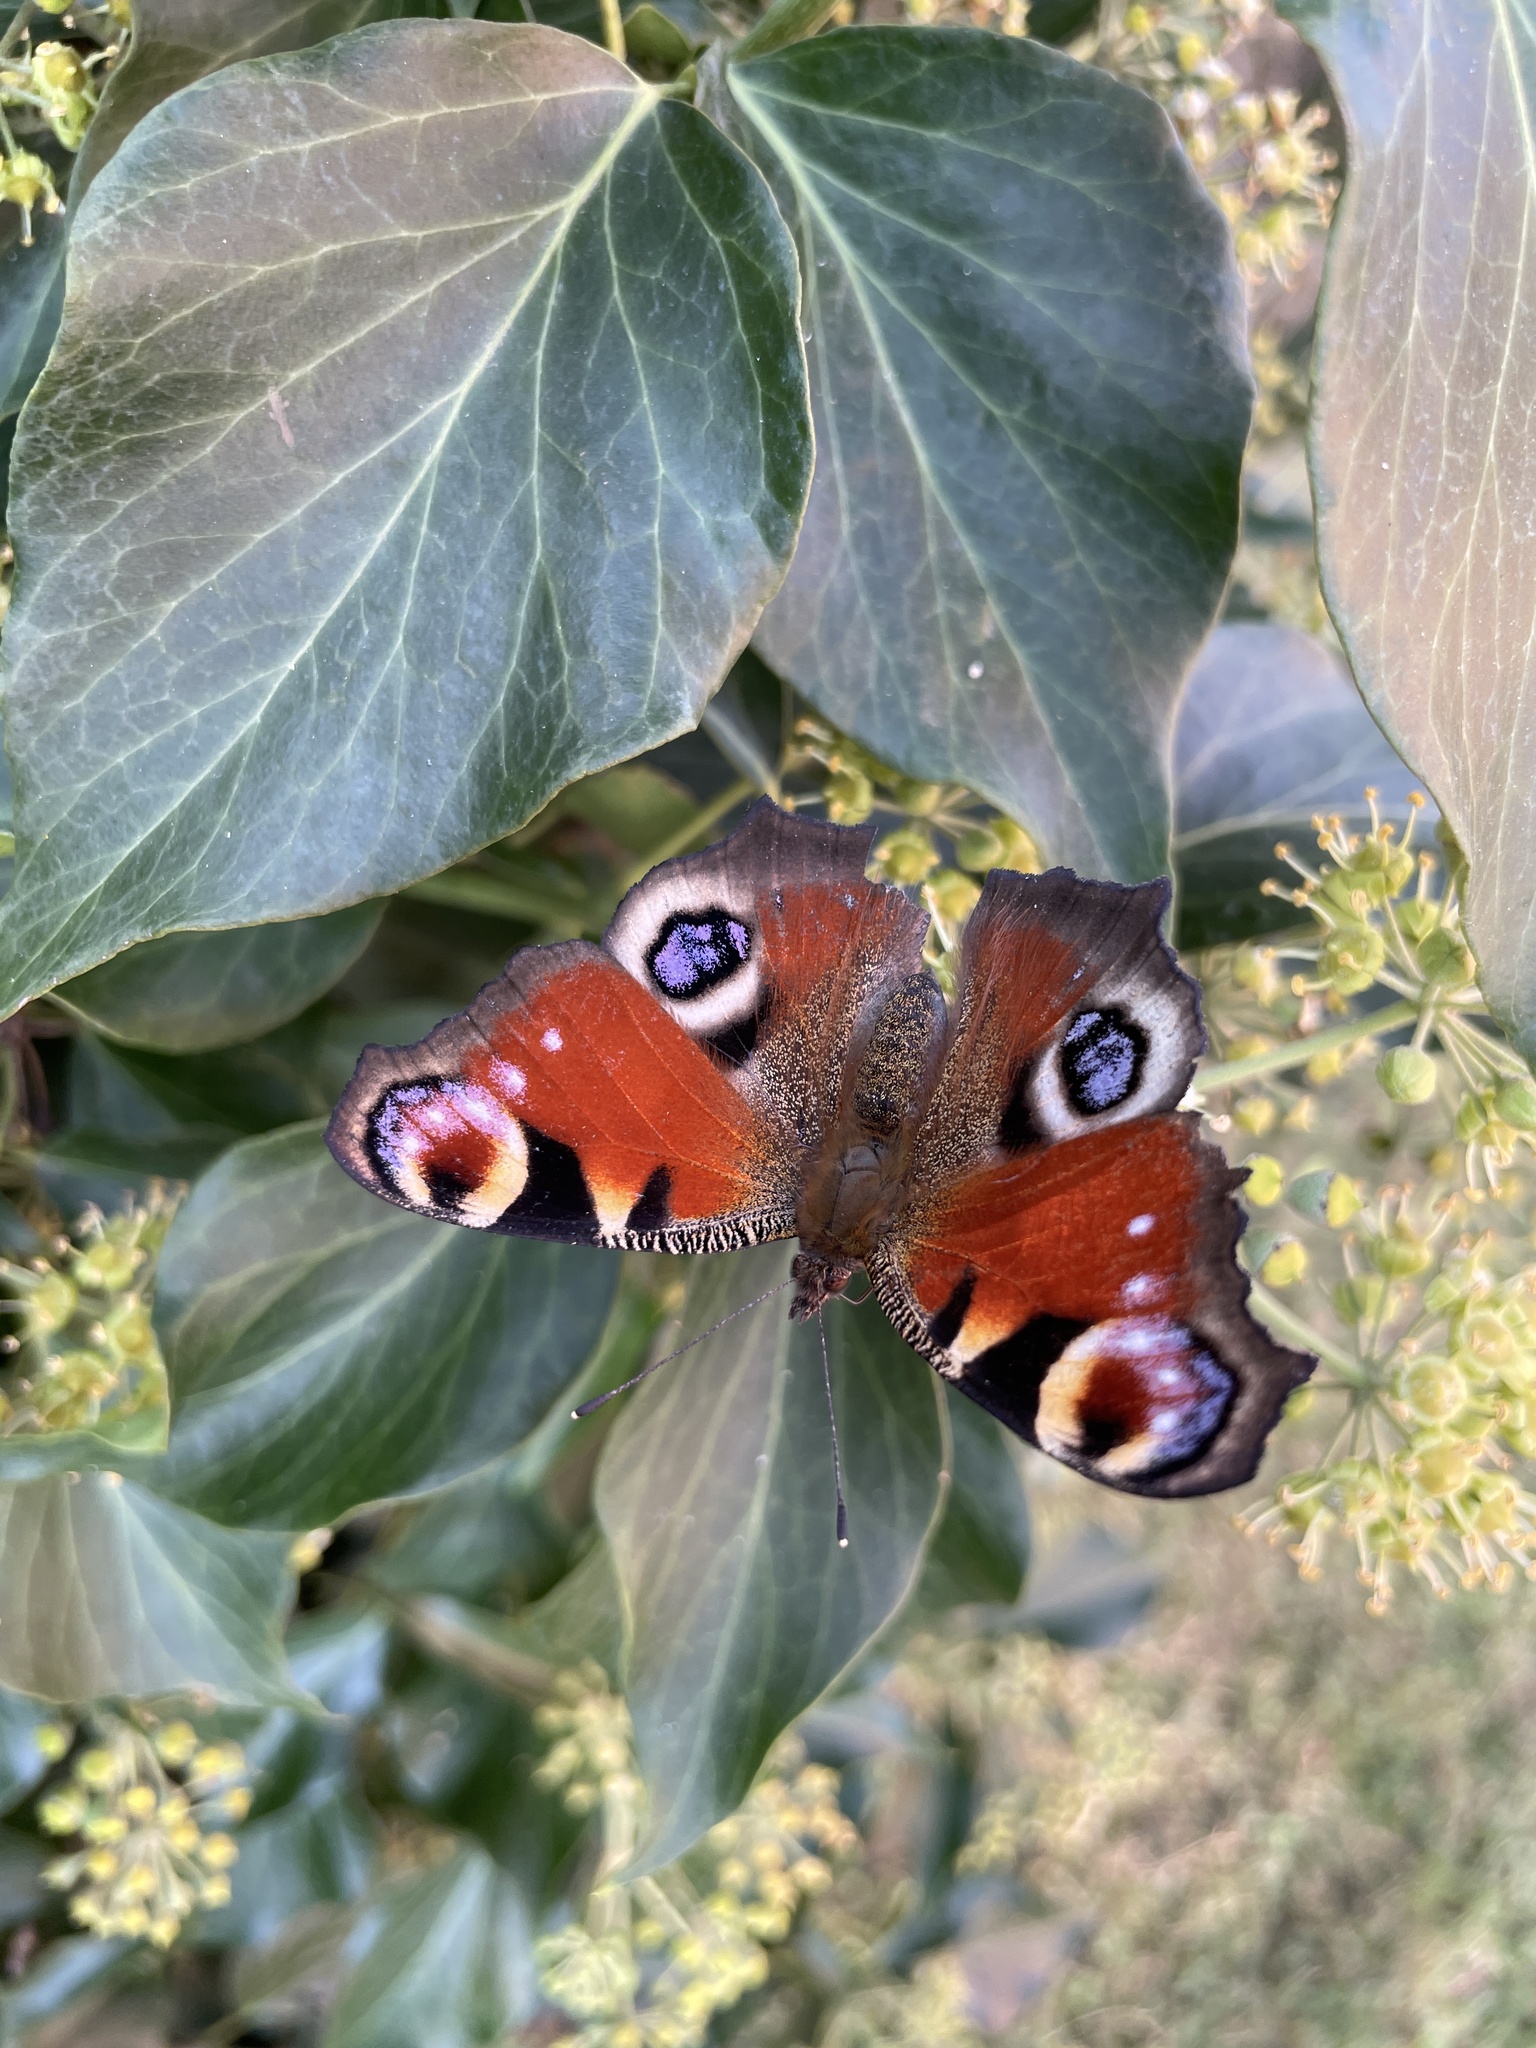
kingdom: Animalia
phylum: Arthropoda
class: Insecta
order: Lepidoptera
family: Nymphalidae
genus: Aglais
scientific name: Aglais io
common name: Peacock
